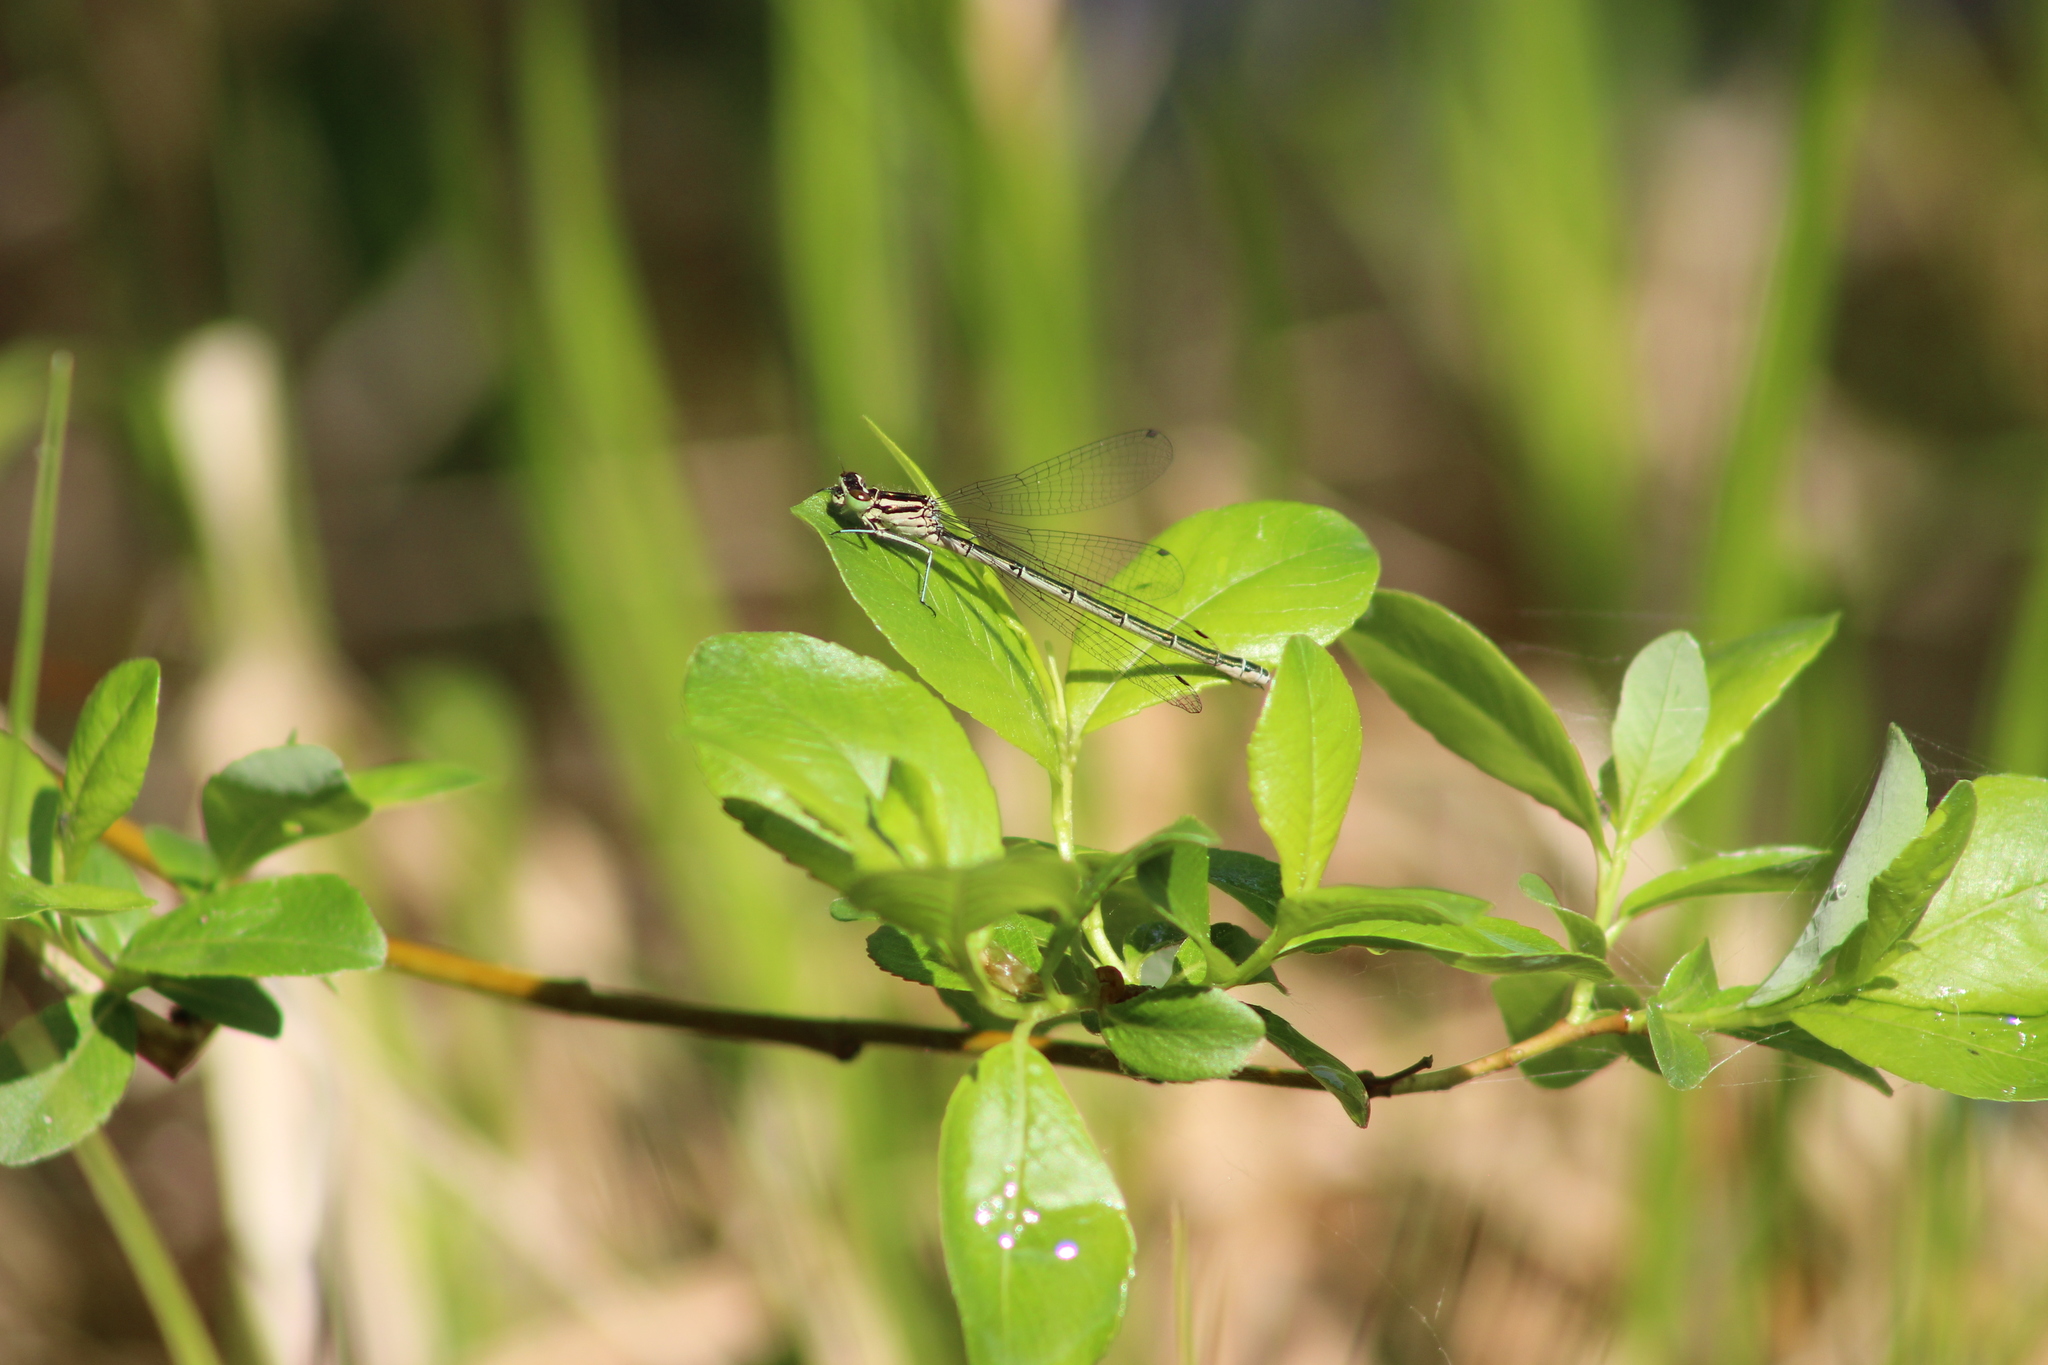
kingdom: Animalia
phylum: Arthropoda
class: Insecta
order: Odonata
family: Coenagrionidae
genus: Coenagrion
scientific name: Coenagrion hastulatum
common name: Spearhead bluet
